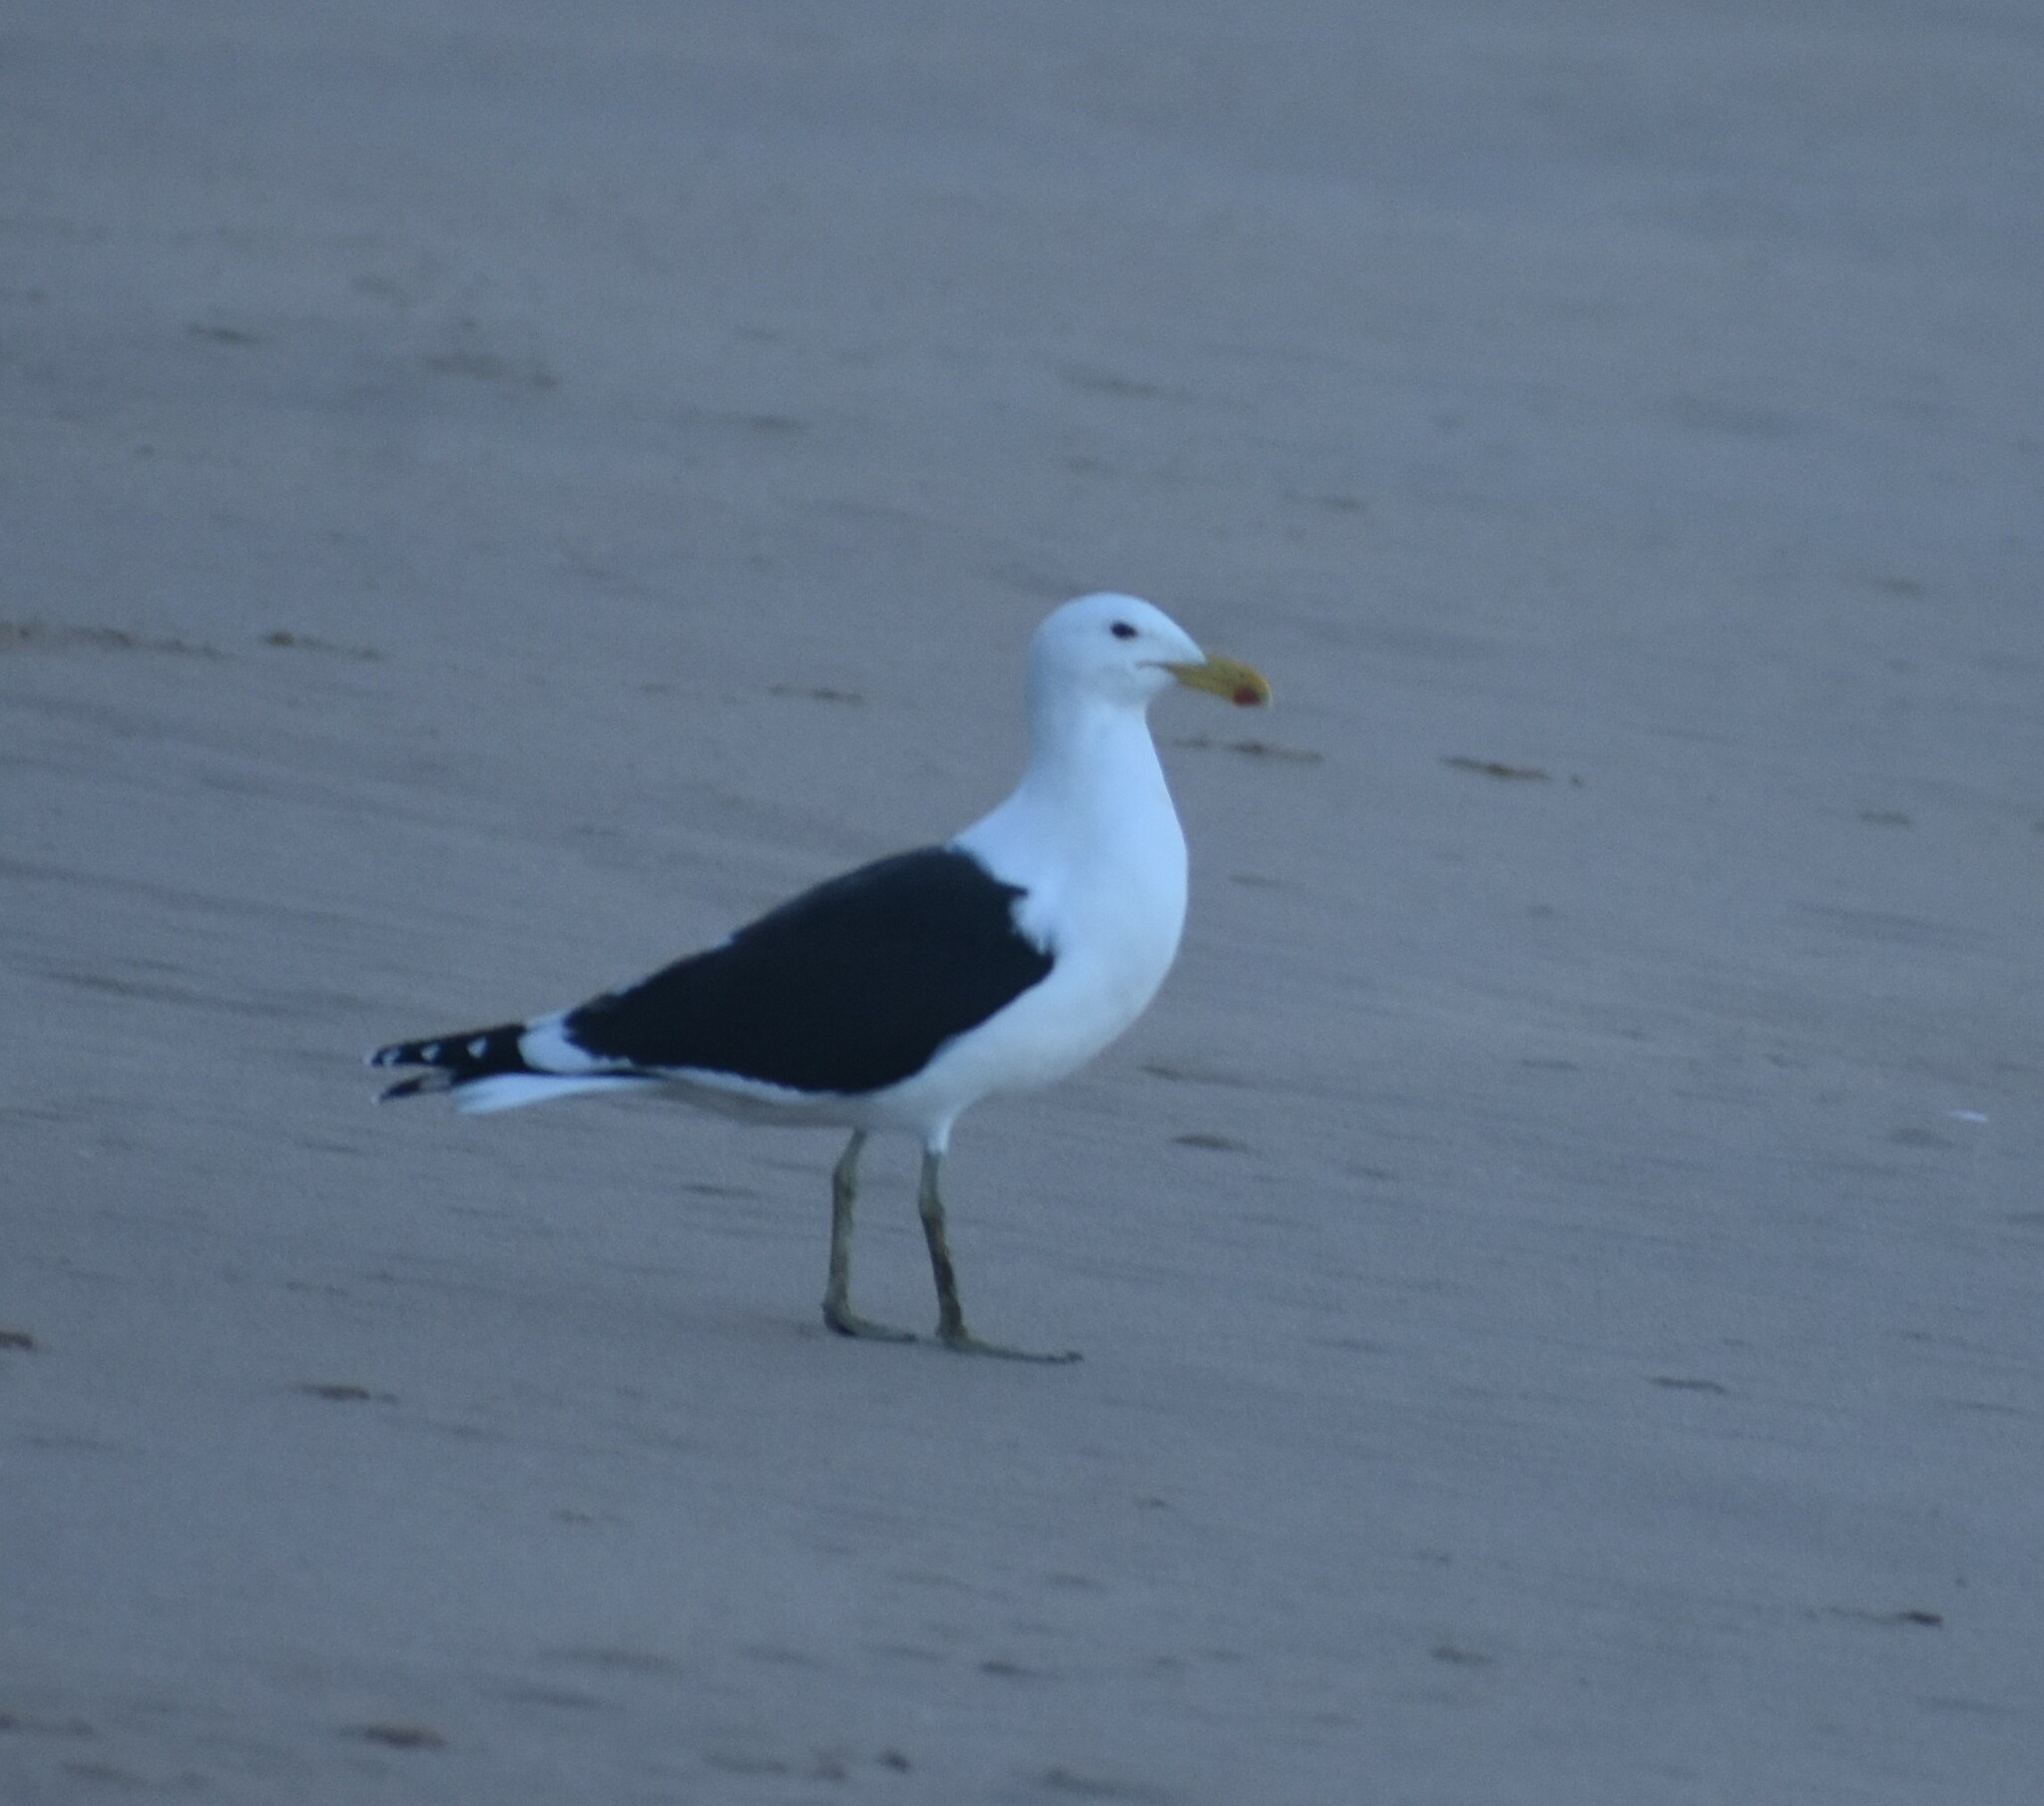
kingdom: Animalia
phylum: Chordata
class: Aves
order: Charadriiformes
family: Laridae
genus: Larus
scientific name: Larus dominicanus
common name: Kelp gull
